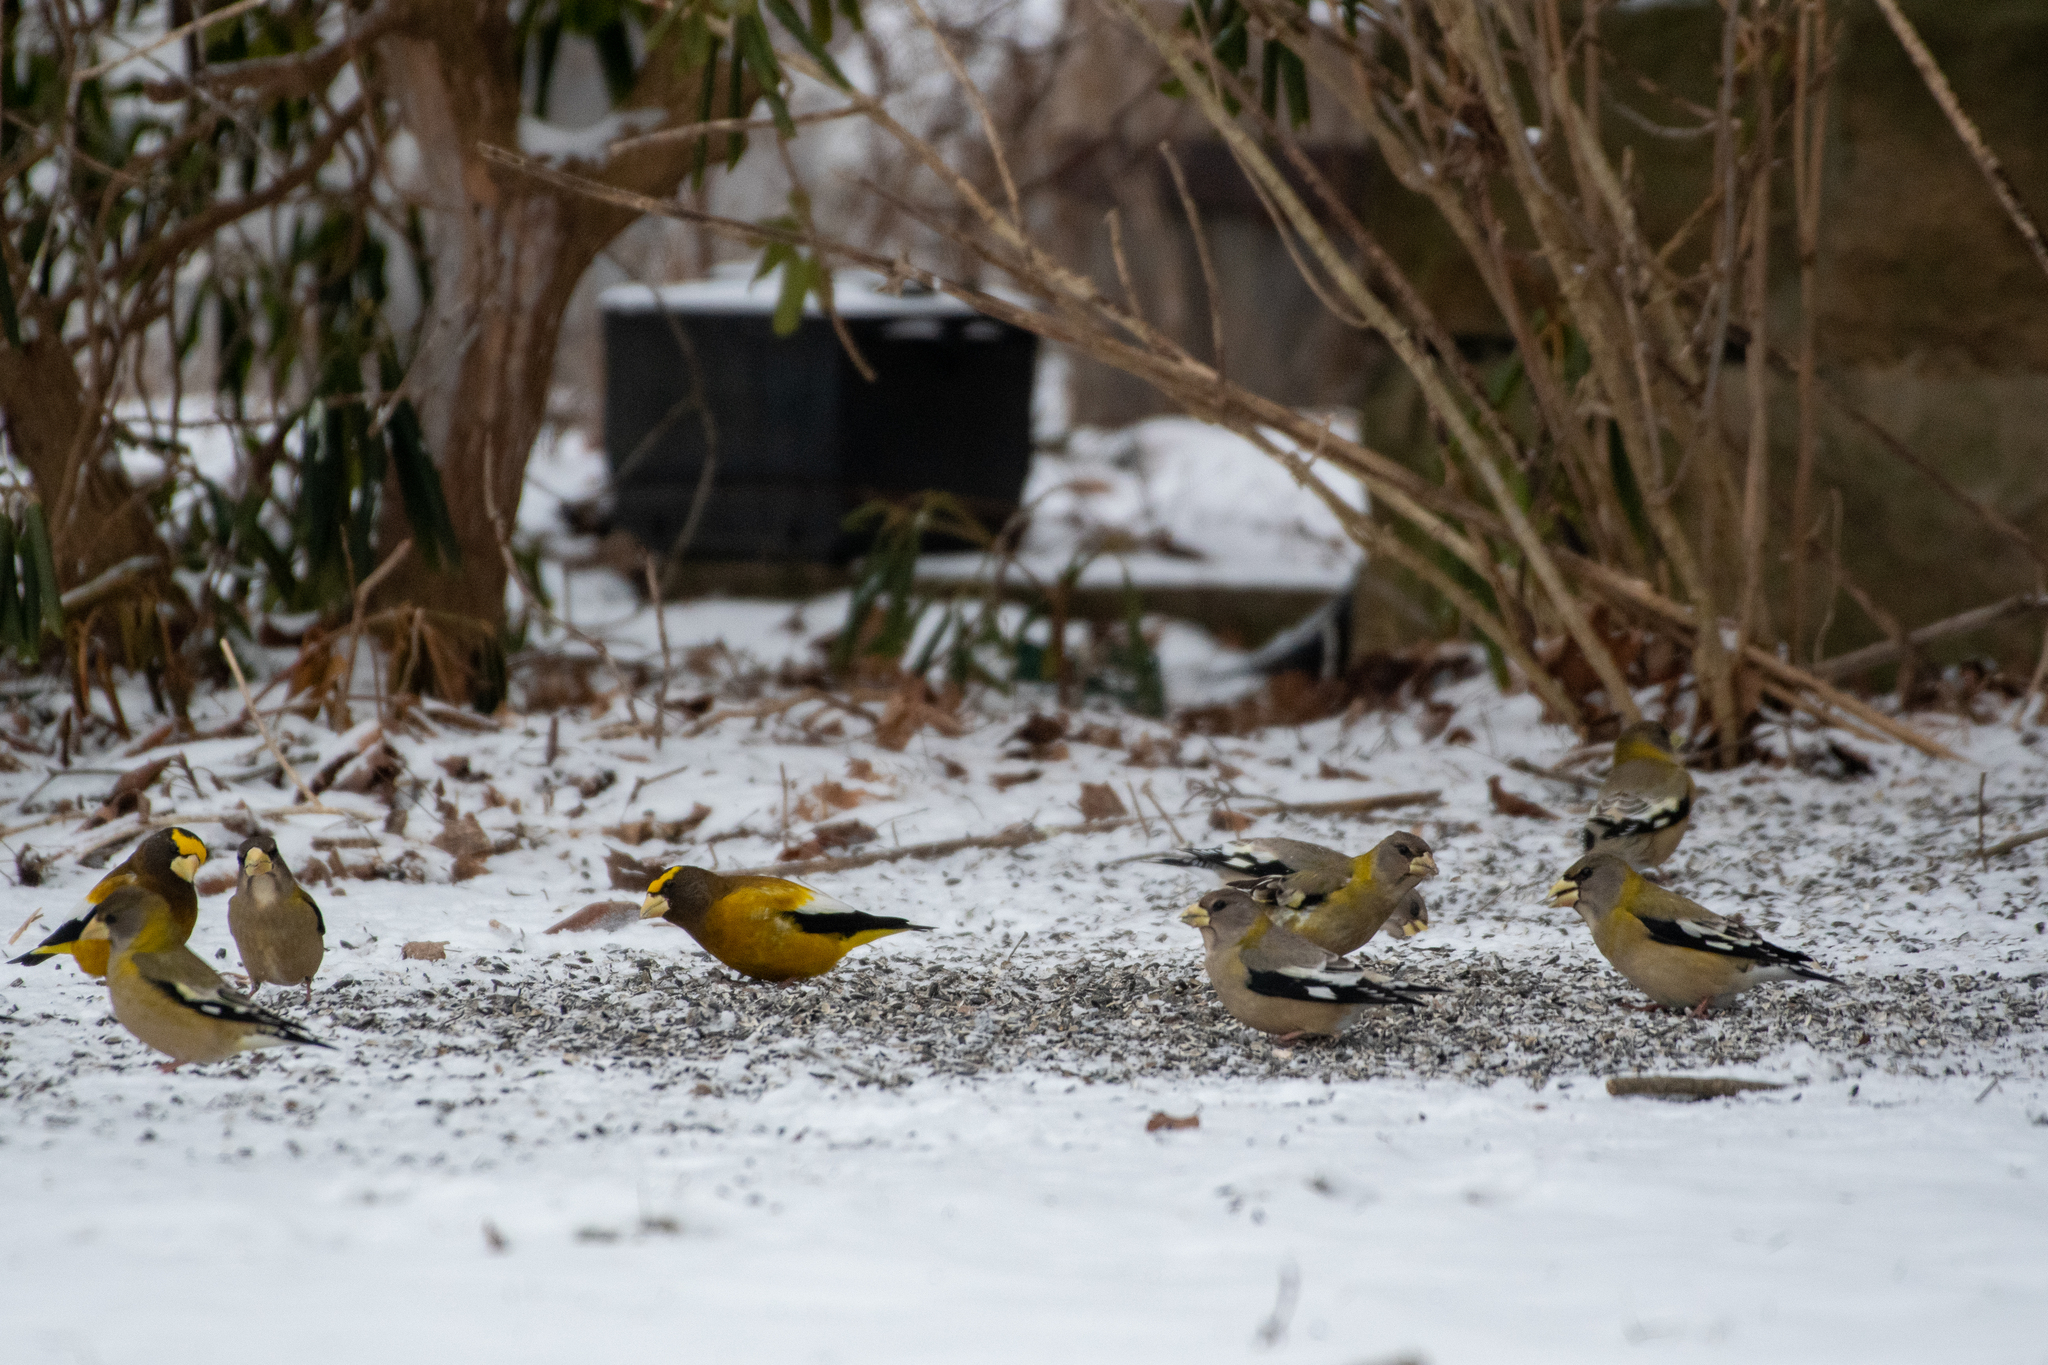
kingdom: Animalia
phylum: Chordata
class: Aves
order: Passeriformes
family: Fringillidae
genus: Hesperiphona
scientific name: Hesperiphona vespertina
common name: Evening grosbeak
